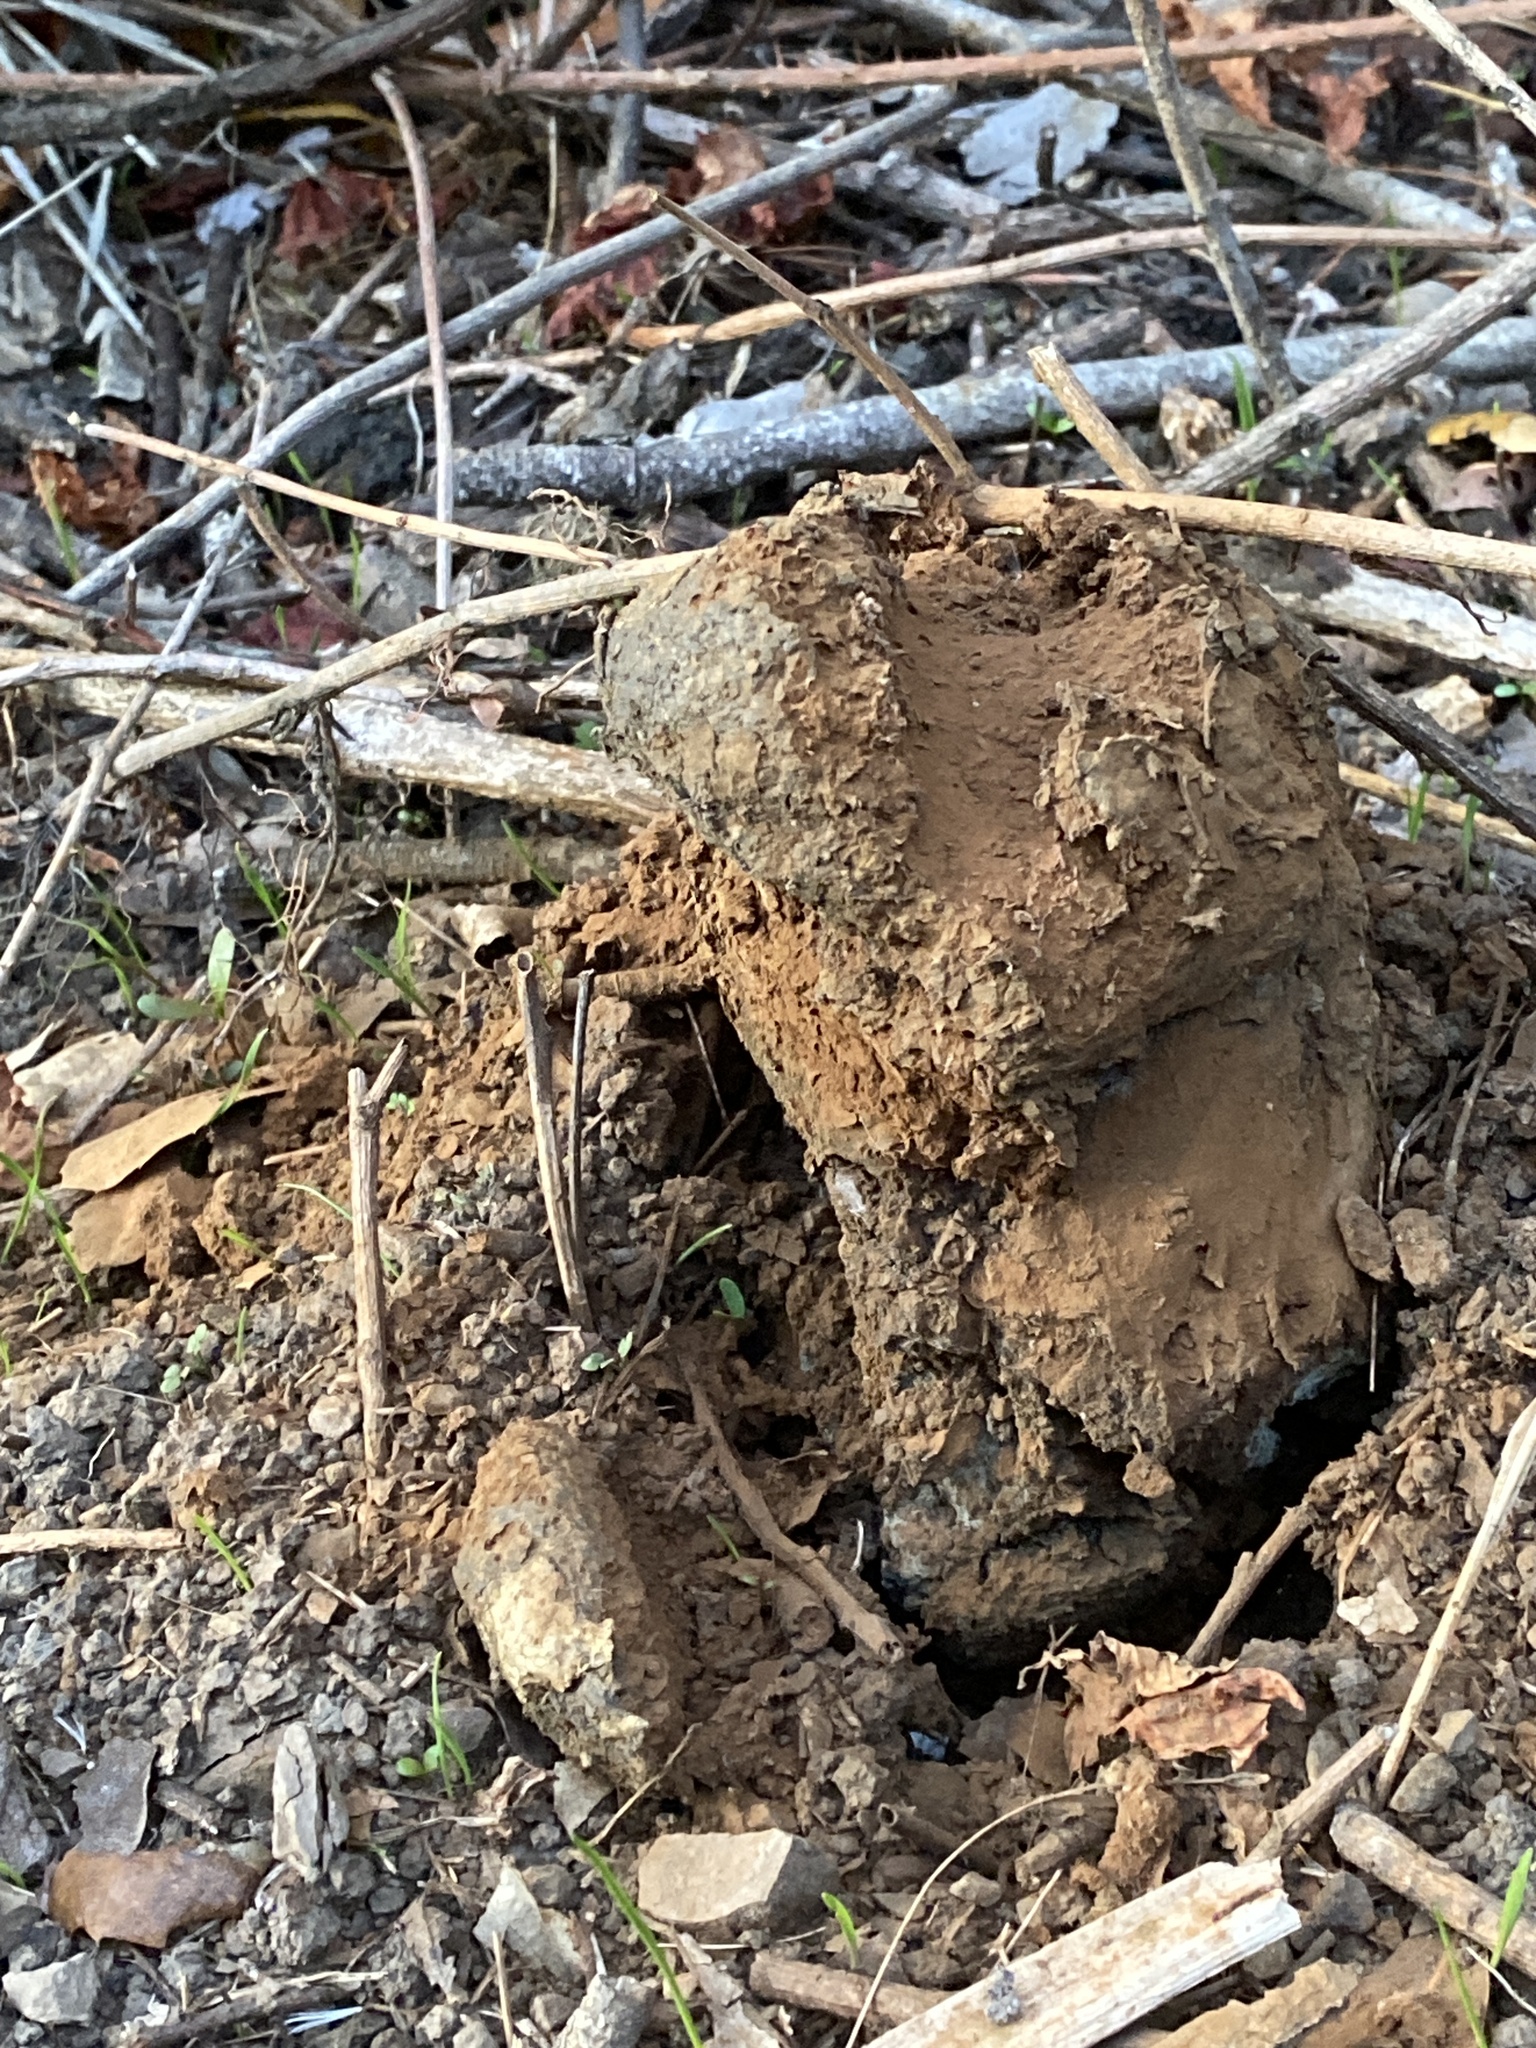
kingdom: Fungi
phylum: Basidiomycota
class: Agaricomycetes
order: Boletales
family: Sclerodermataceae
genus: Pisolithus
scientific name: Pisolithus tinctorius
